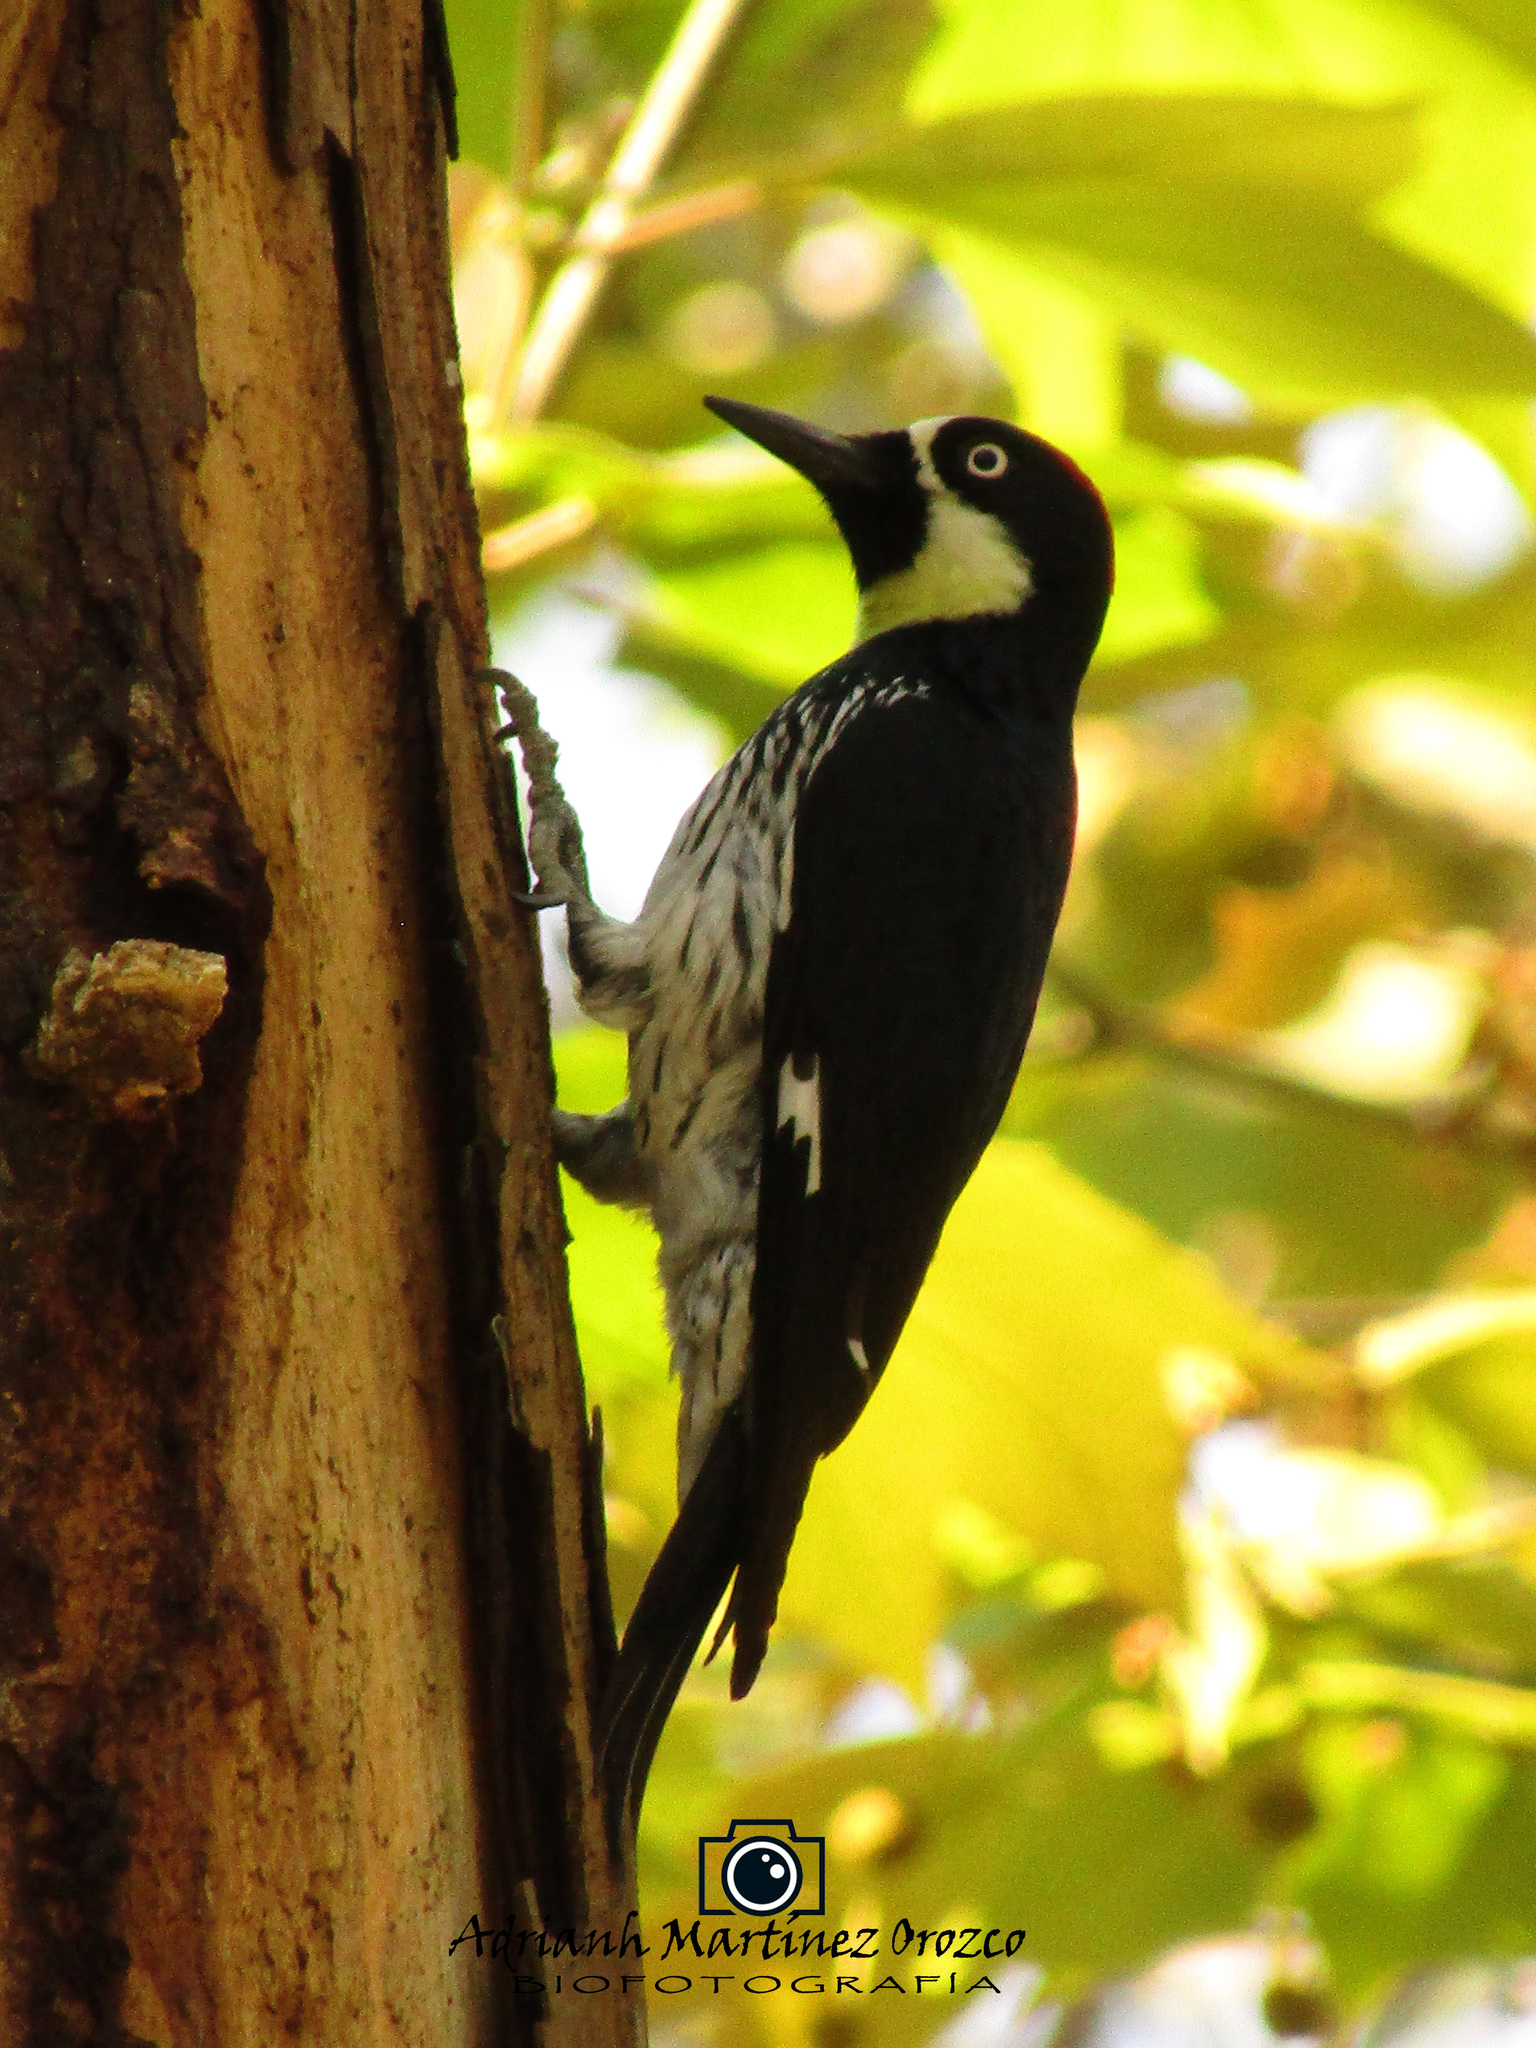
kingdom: Animalia
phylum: Chordata
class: Aves
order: Piciformes
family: Picidae
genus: Melanerpes
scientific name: Melanerpes formicivorus
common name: Acorn woodpecker
